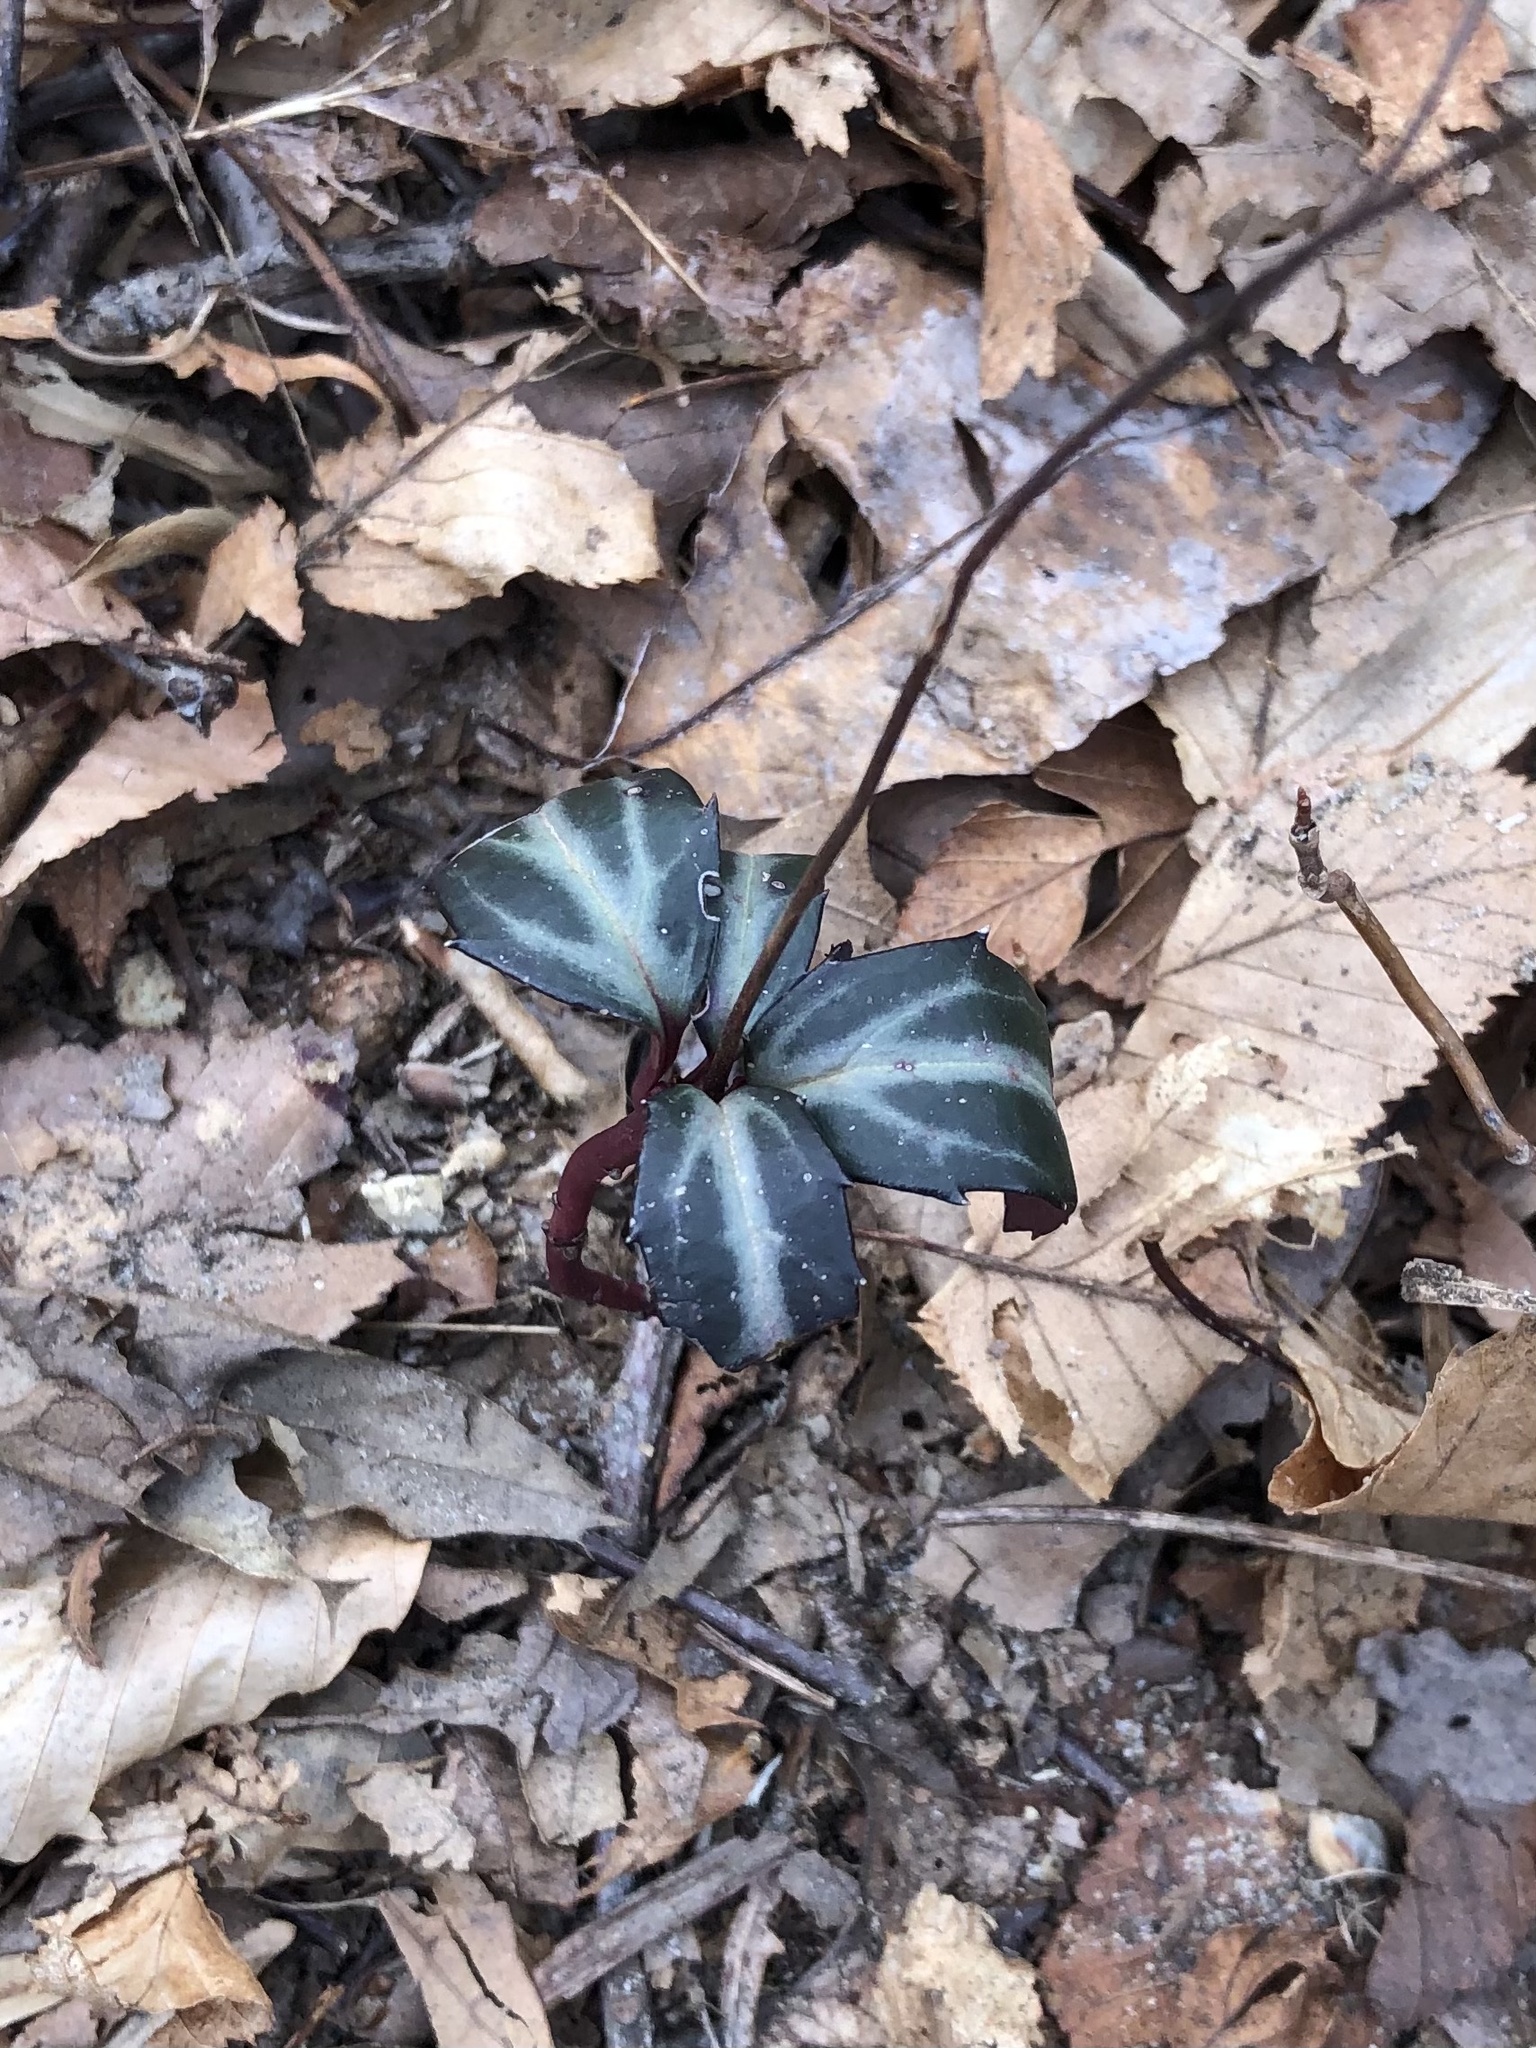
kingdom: Plantae
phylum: Tracheophyta
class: Magnoliopsida
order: Ericales
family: Ericaceae
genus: Chimaphila
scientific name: Chimaphila maculata
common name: Spotted pipsissewa
